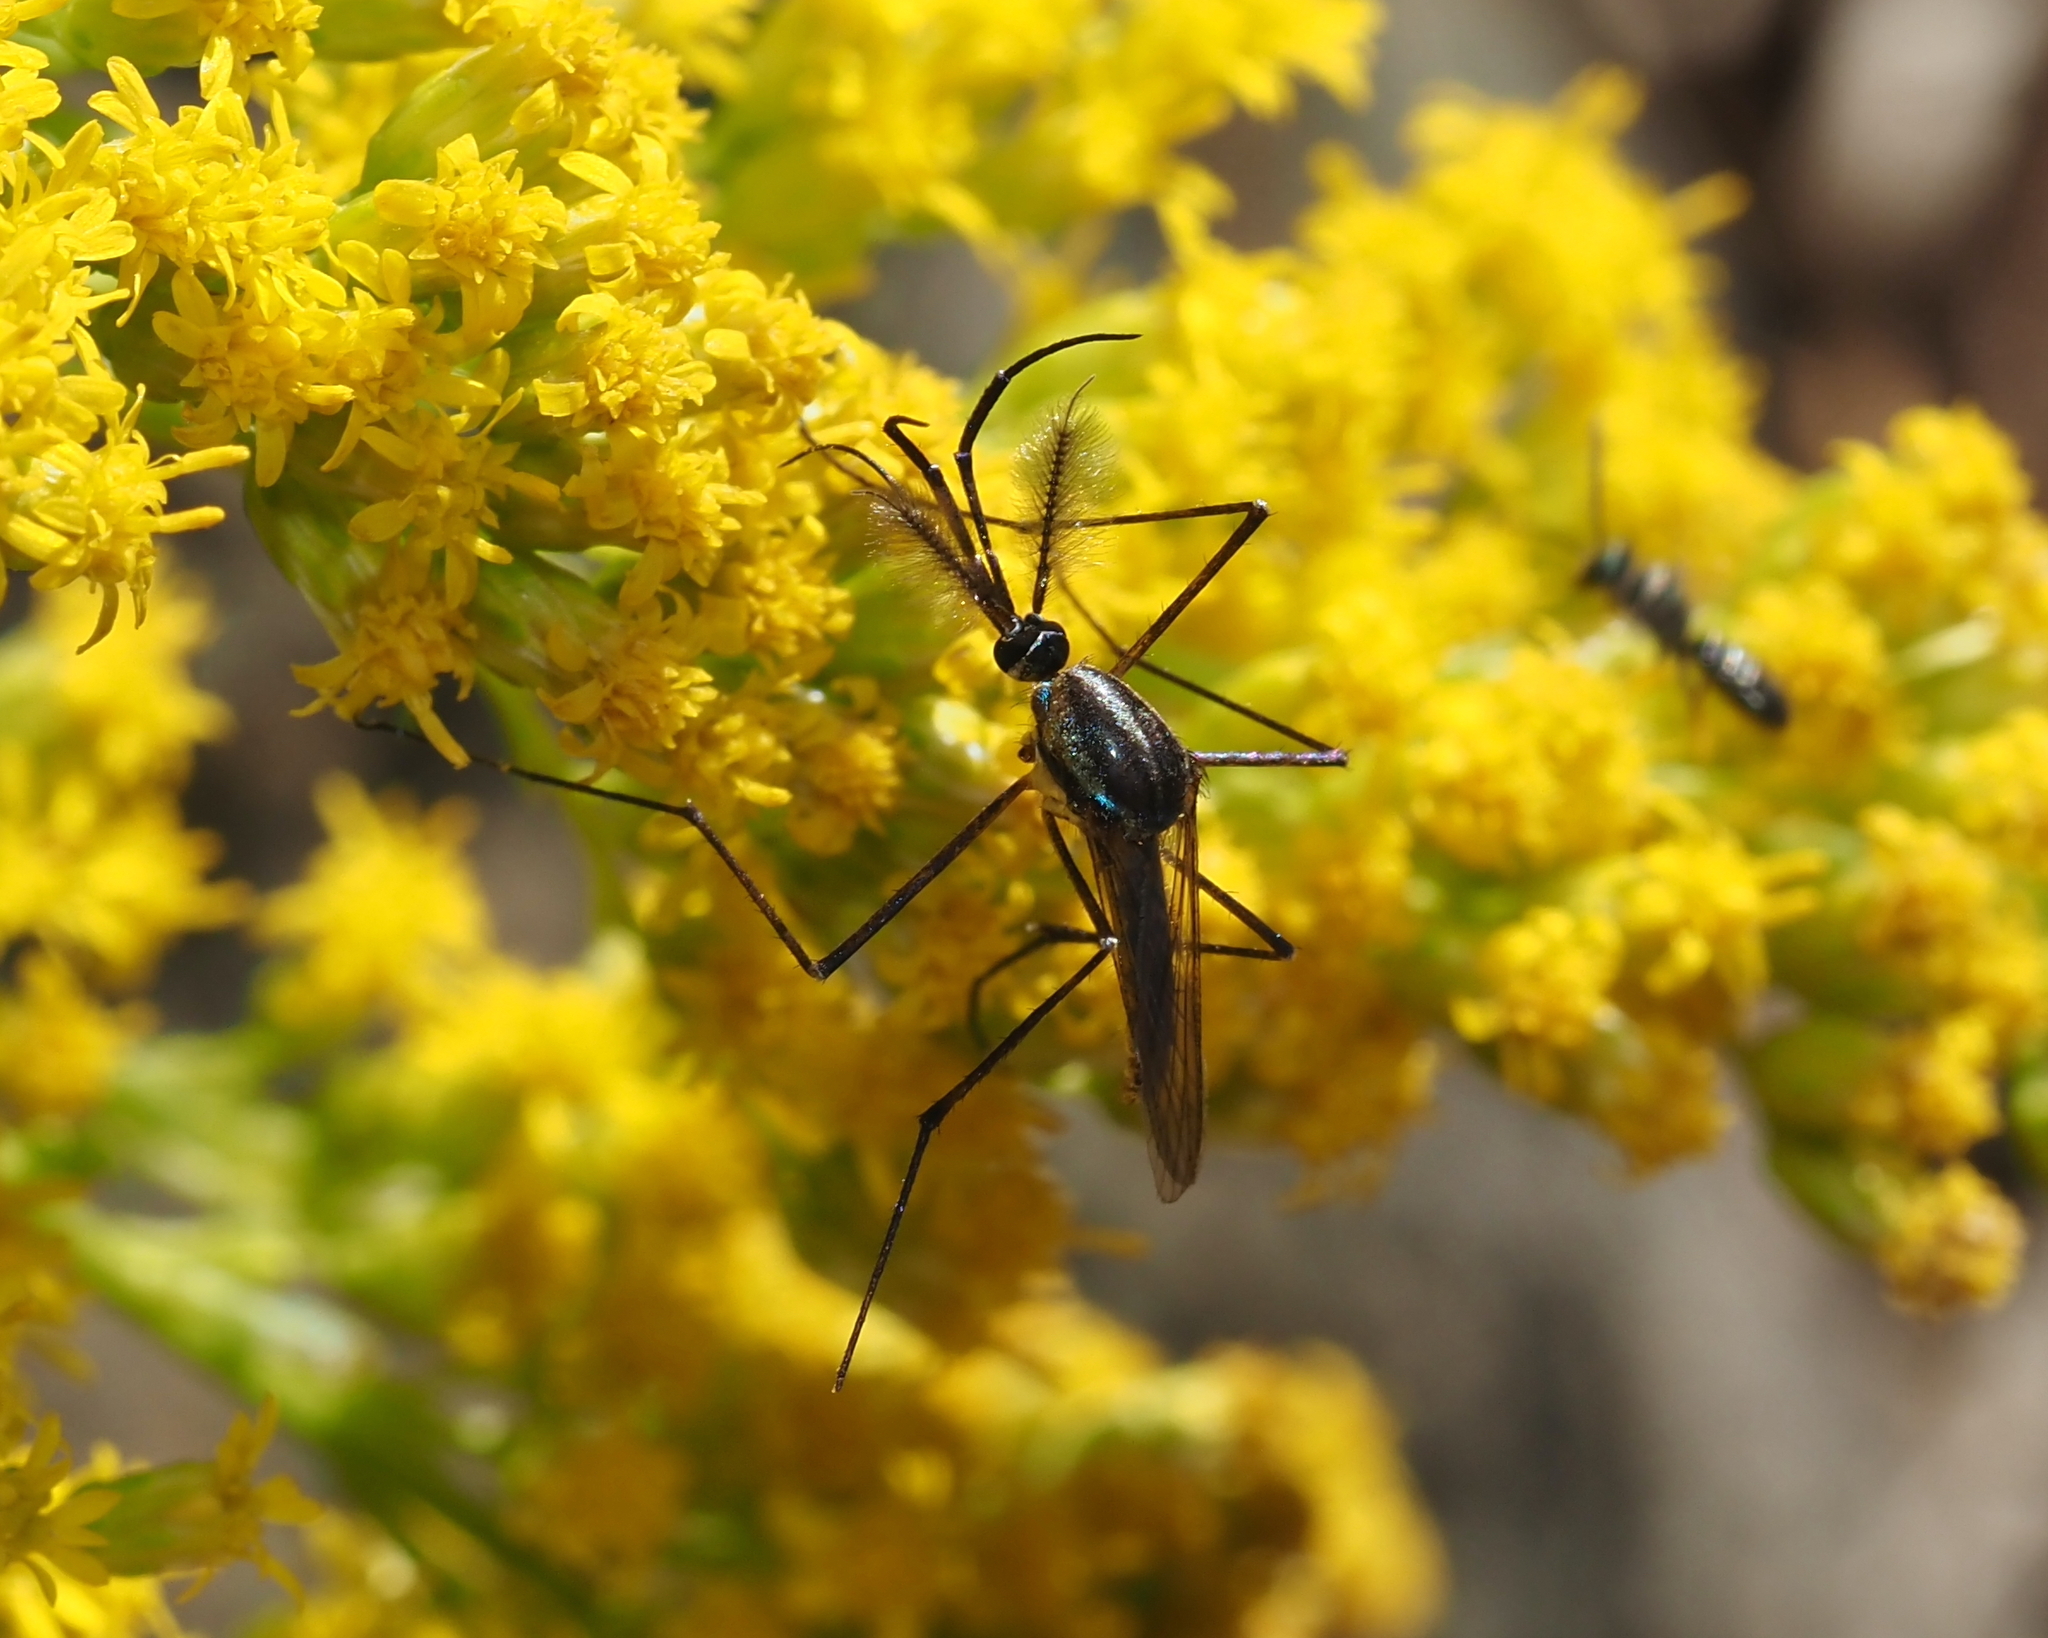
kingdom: Animalia
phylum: Arthropoda
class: Insecta
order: Diptera
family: Culicidae
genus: Toxorhynchites
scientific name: Toxorhynchites rutilus
